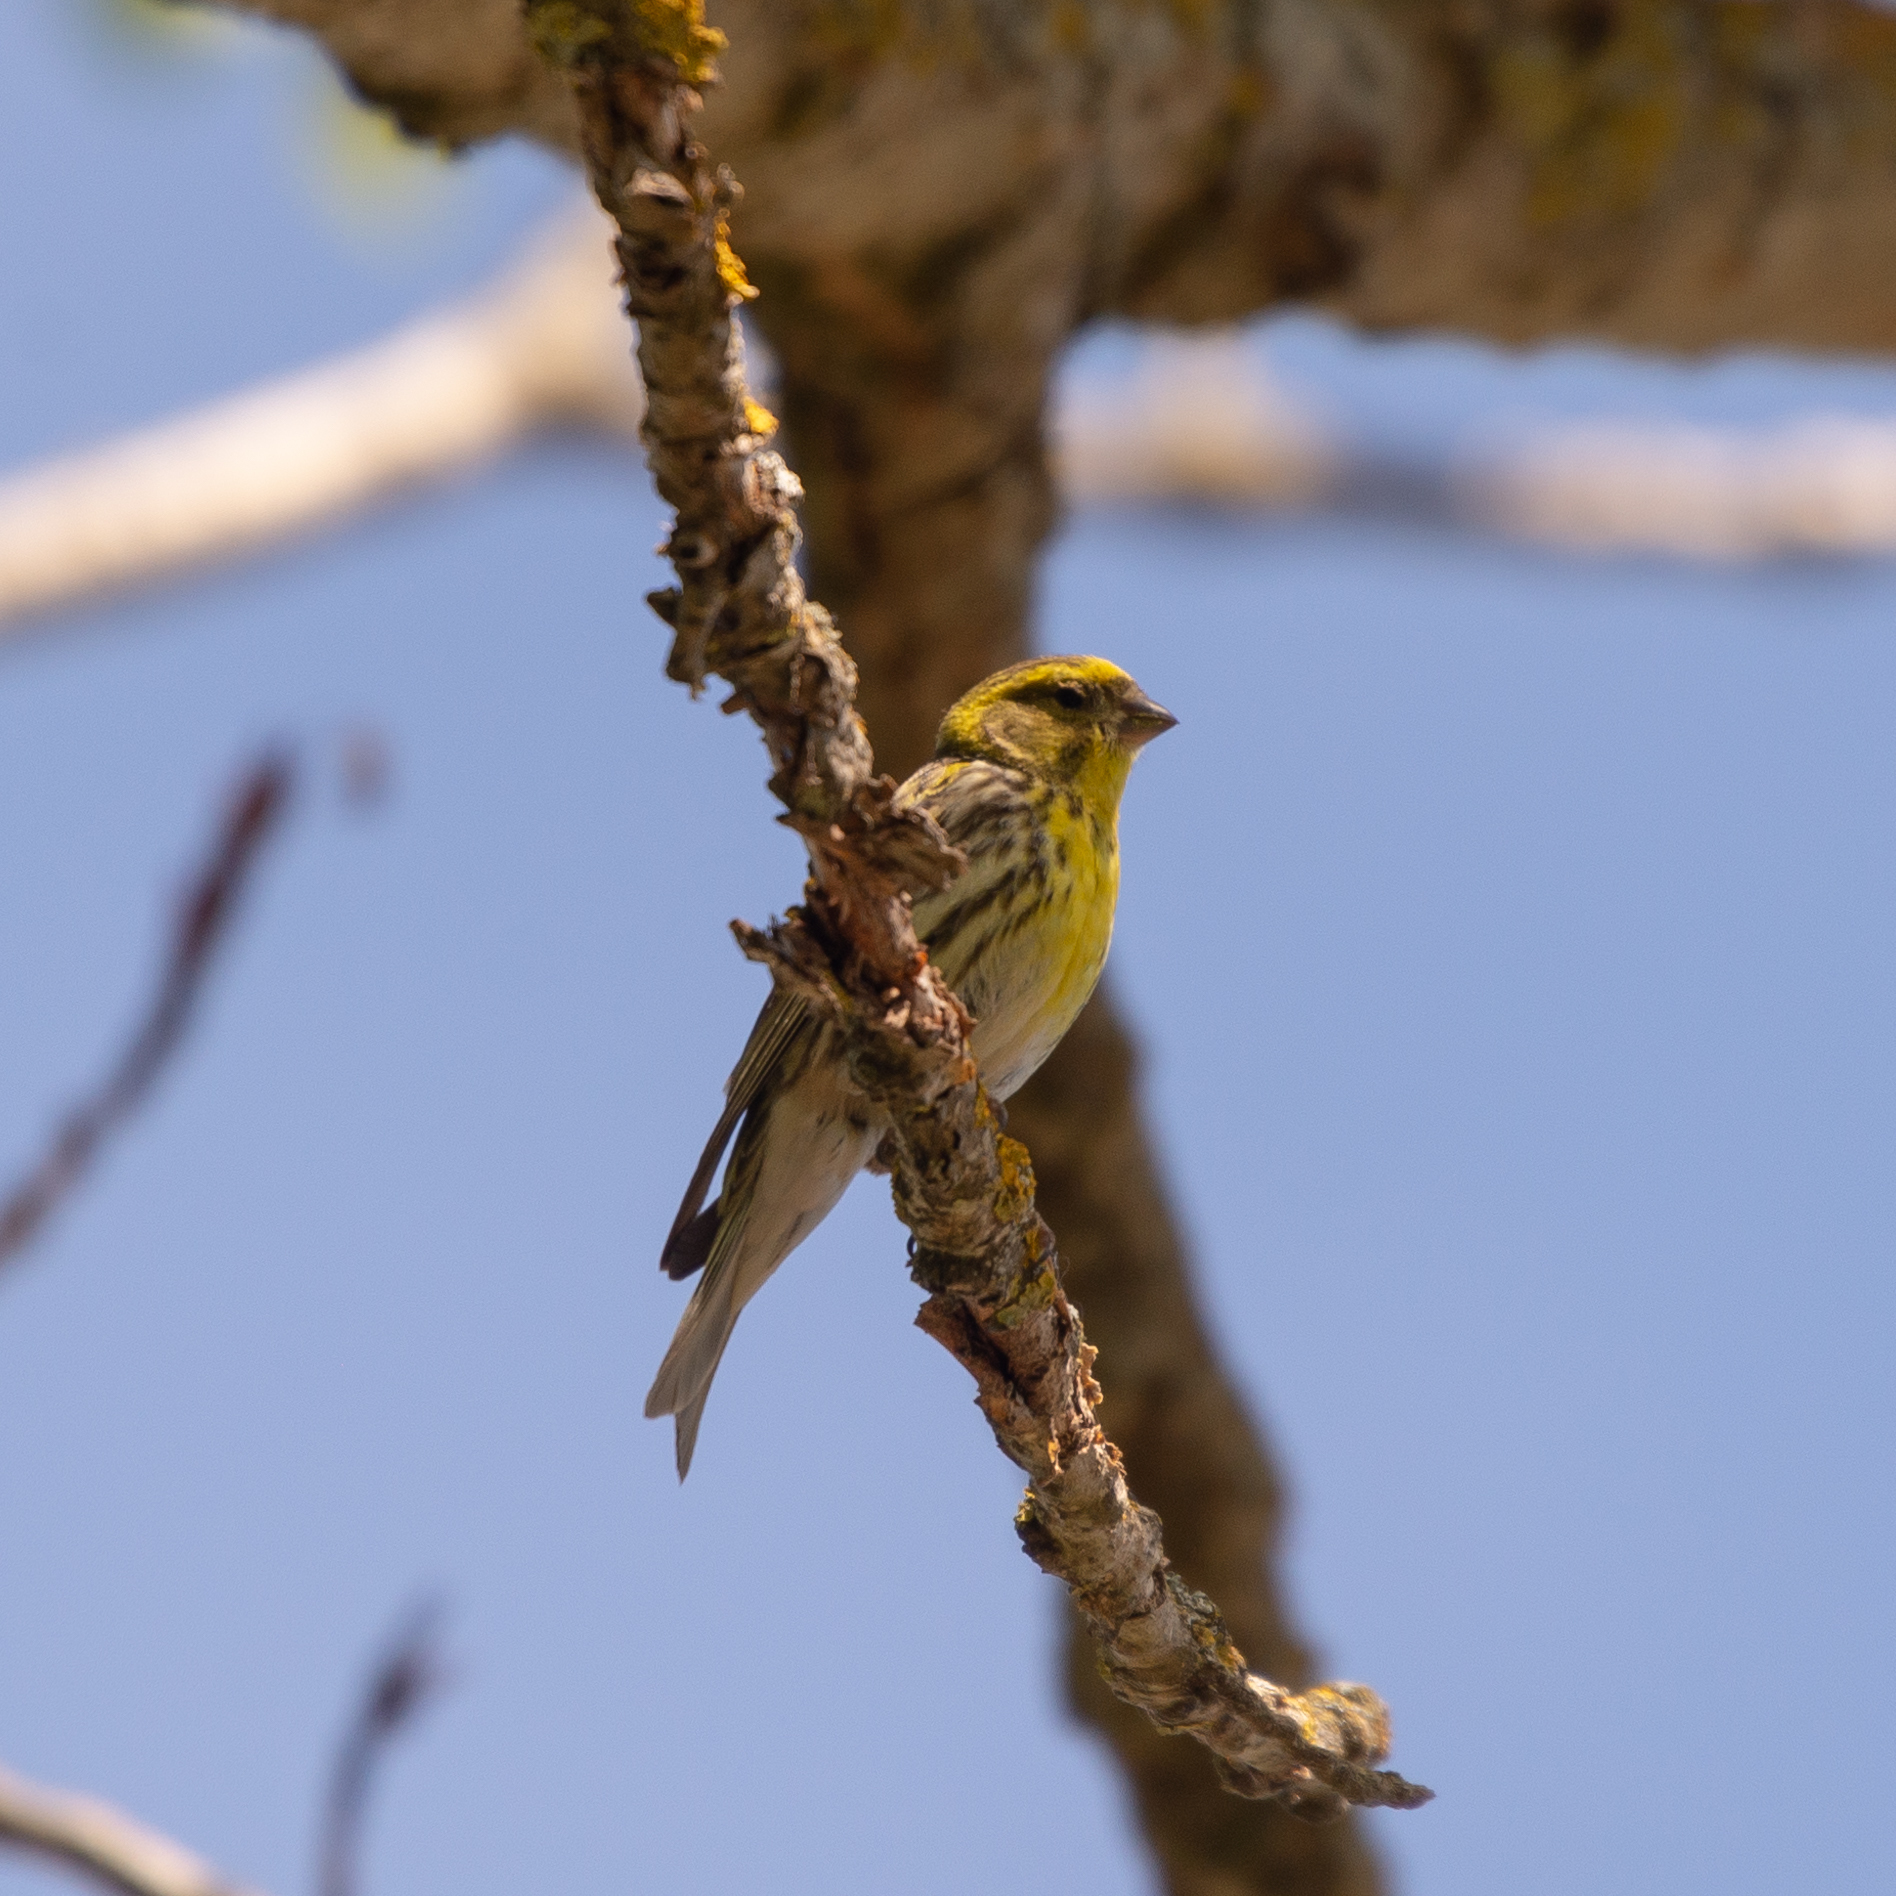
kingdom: Animalia
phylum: Chordata
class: Aves
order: Passeriformes
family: Fringillidae
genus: Serinus
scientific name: Serinus serinus
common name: European serin
